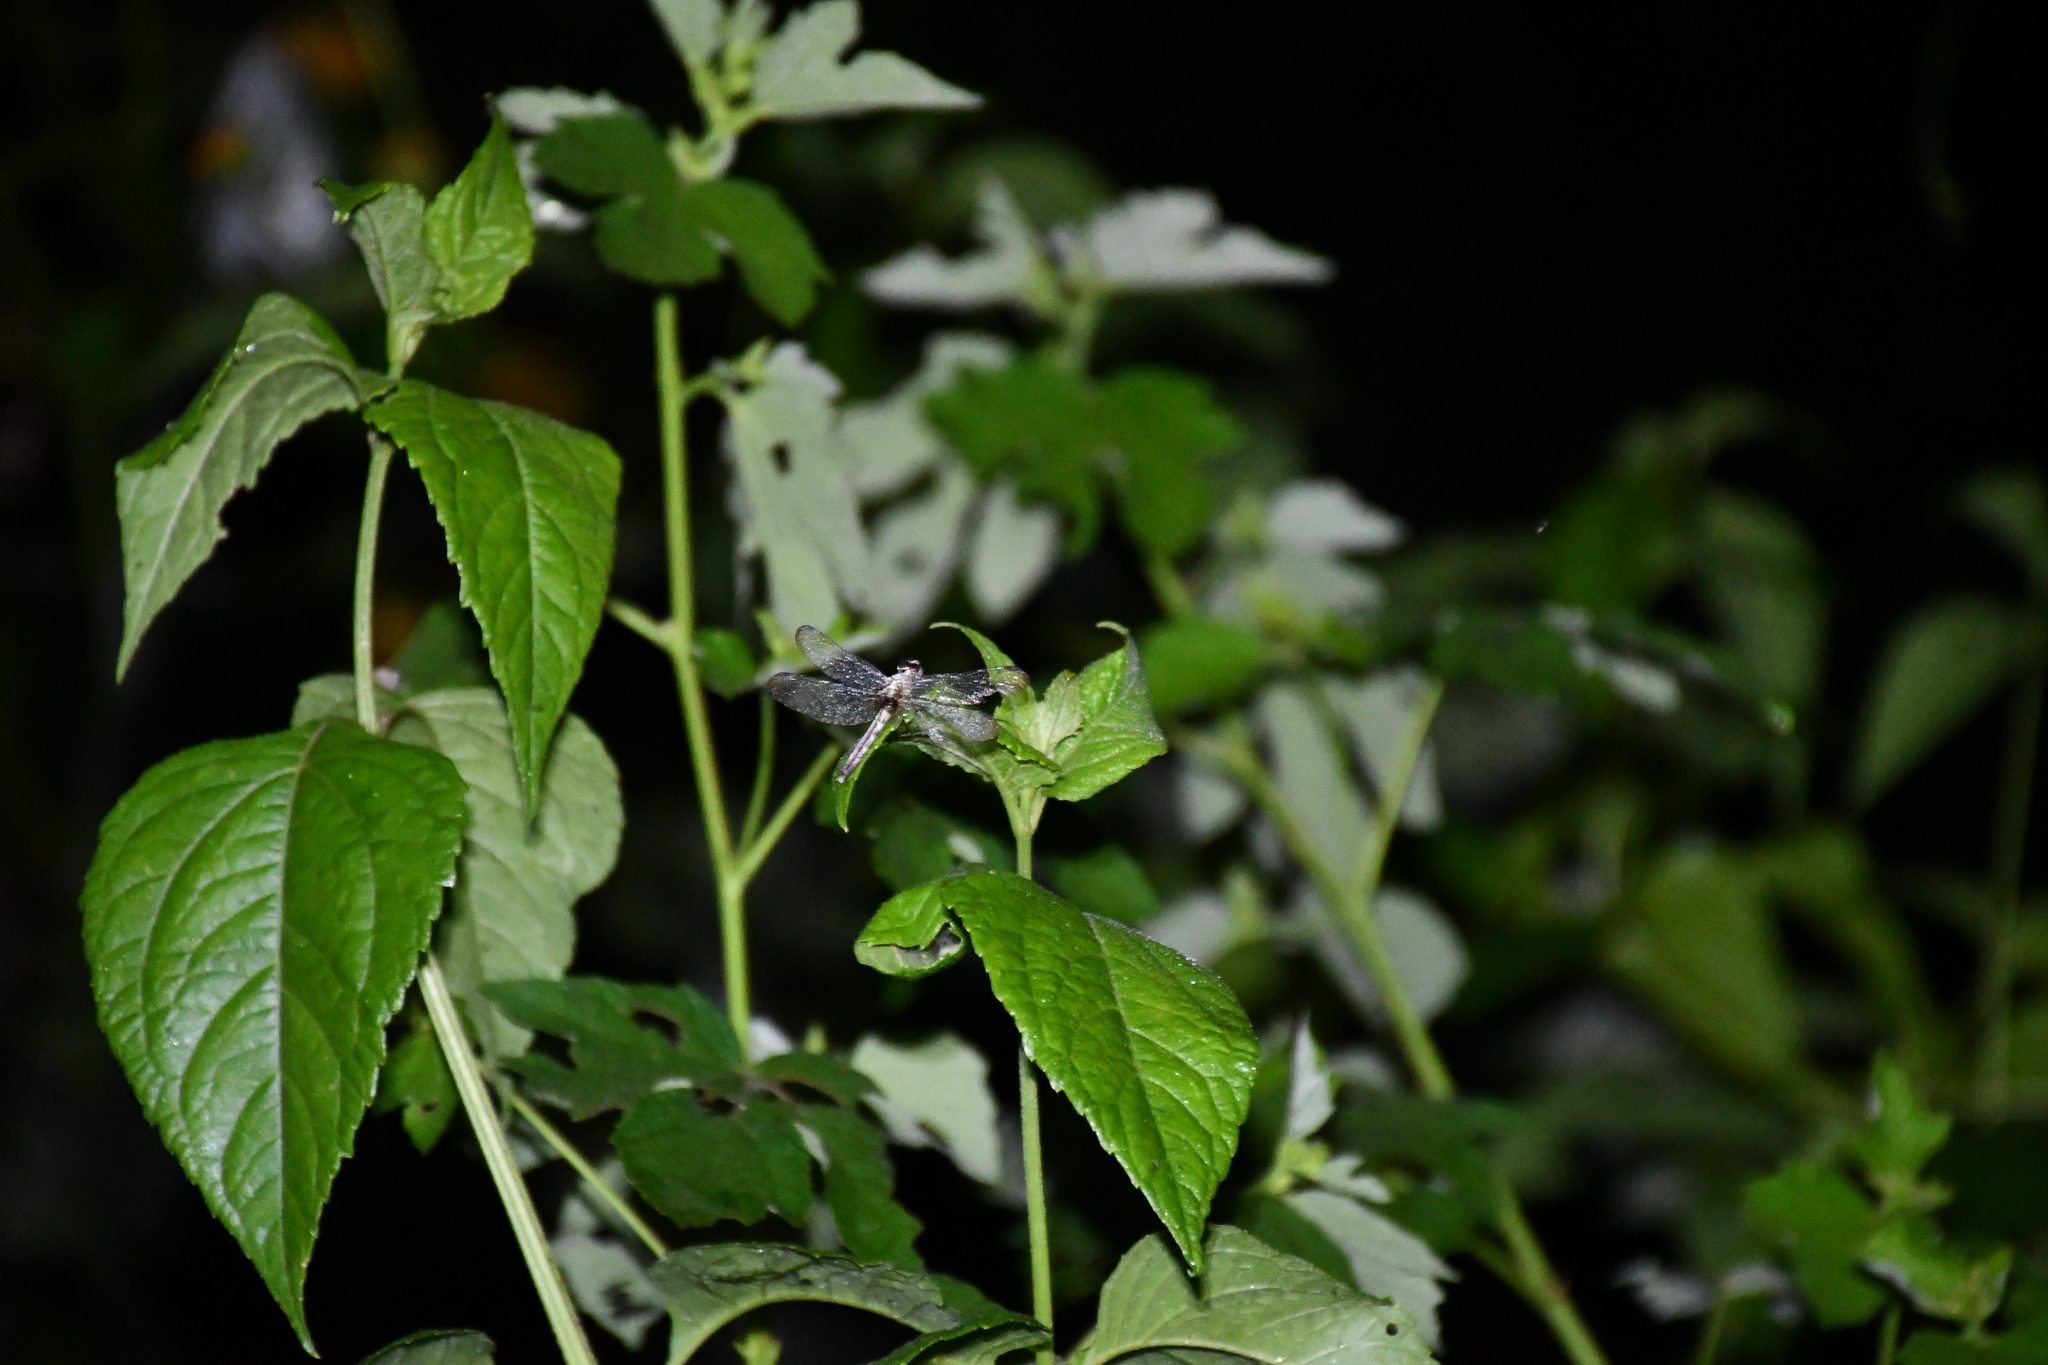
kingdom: Animalia
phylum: Arthropoda
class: Insecta
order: Odonata
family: Libellulidae
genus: Erythrodiplax
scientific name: Erythrodiplax unimaculata
